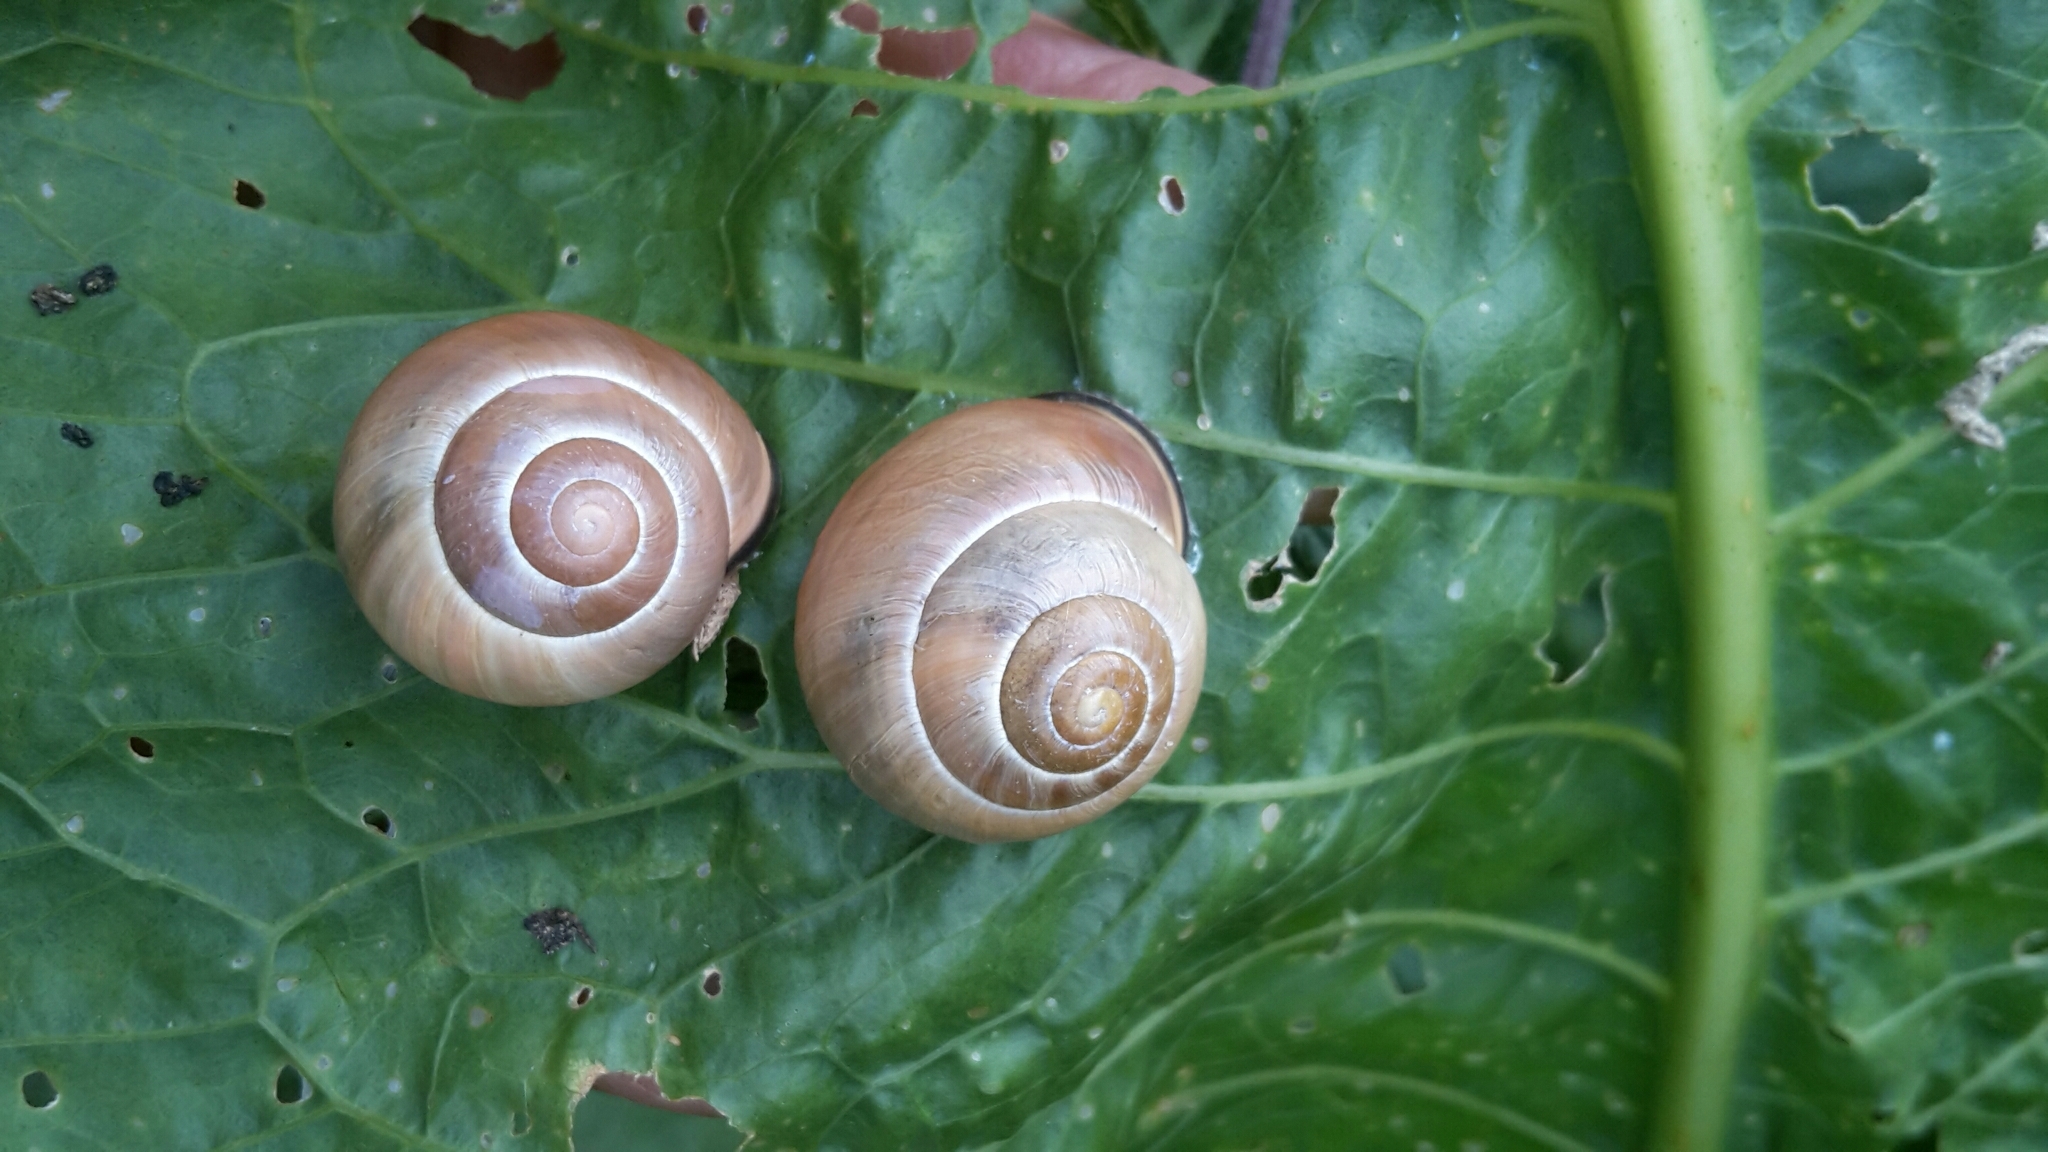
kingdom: Animalia
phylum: Mollusca
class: Gastropoda
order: Stylommatophora
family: Helicidae
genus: Cepaea
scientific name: Cepaea nemoralis
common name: Grovesnail
